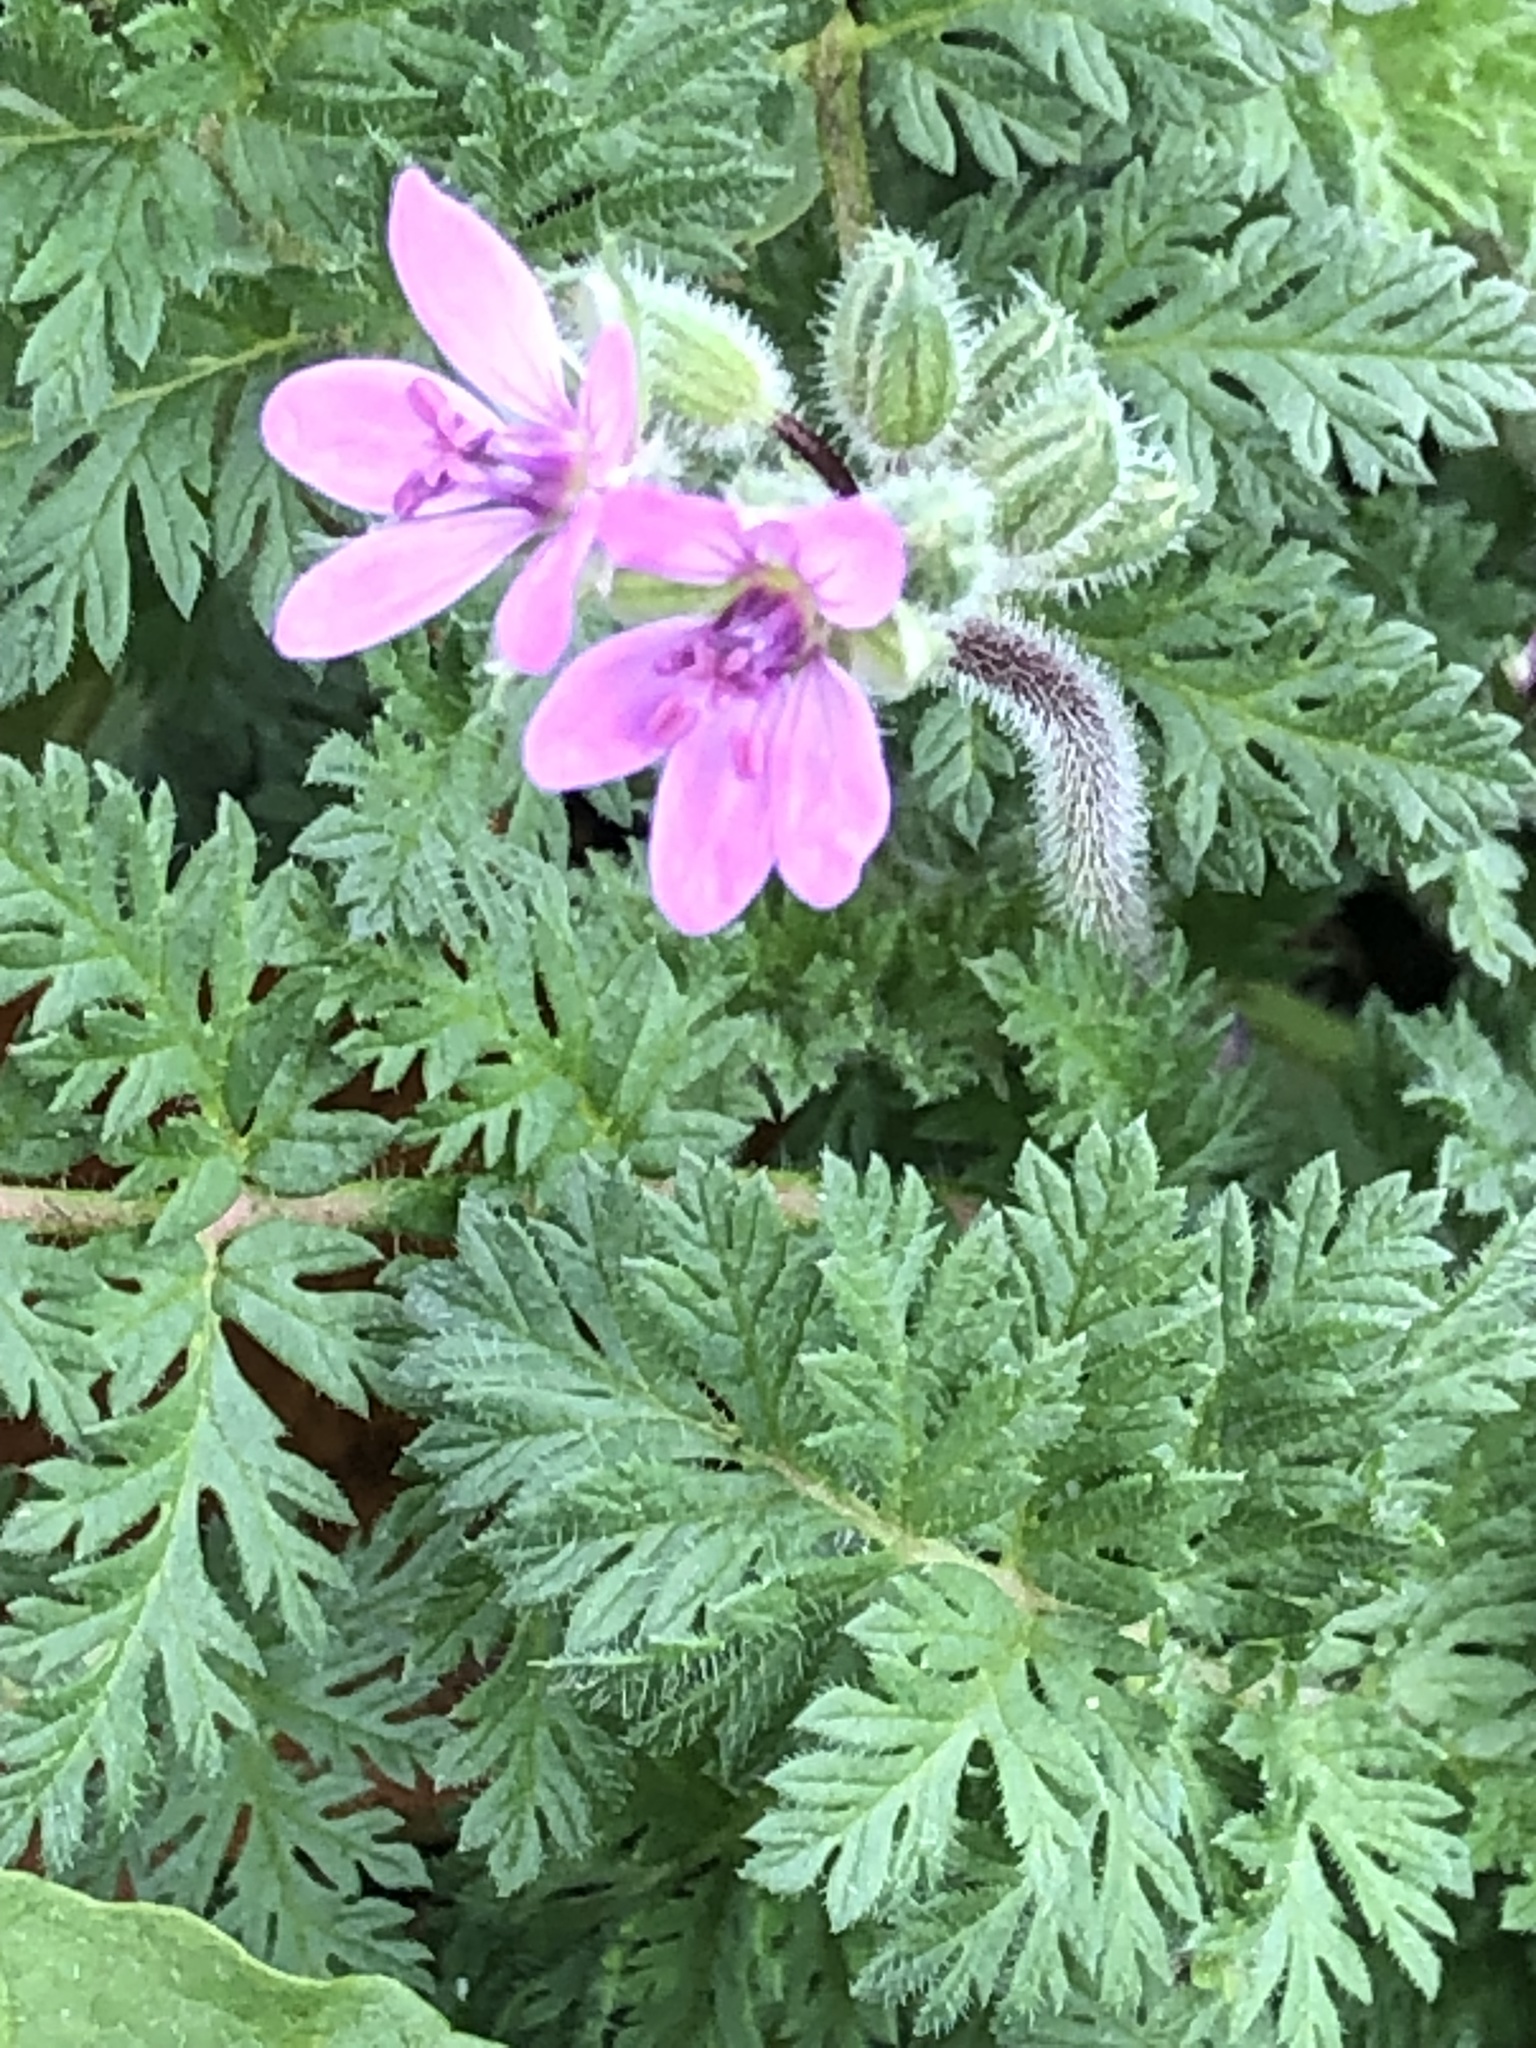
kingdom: Plantae
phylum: Tracheophyta
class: Magnoliopsida
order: Geraniales
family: Geraniaceae
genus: Erodium
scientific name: Erodium cicutarium
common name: Common stork's-bill
